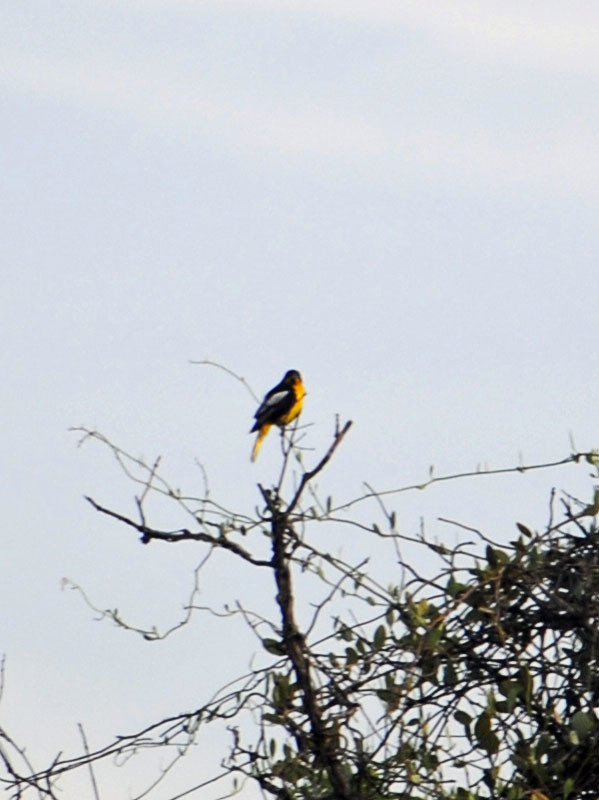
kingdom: Animalia
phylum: Chordata
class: Aves
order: Passeriformes
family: Icteridae
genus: Icterus
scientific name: Icterus abeillei
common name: Black-backed oriole
